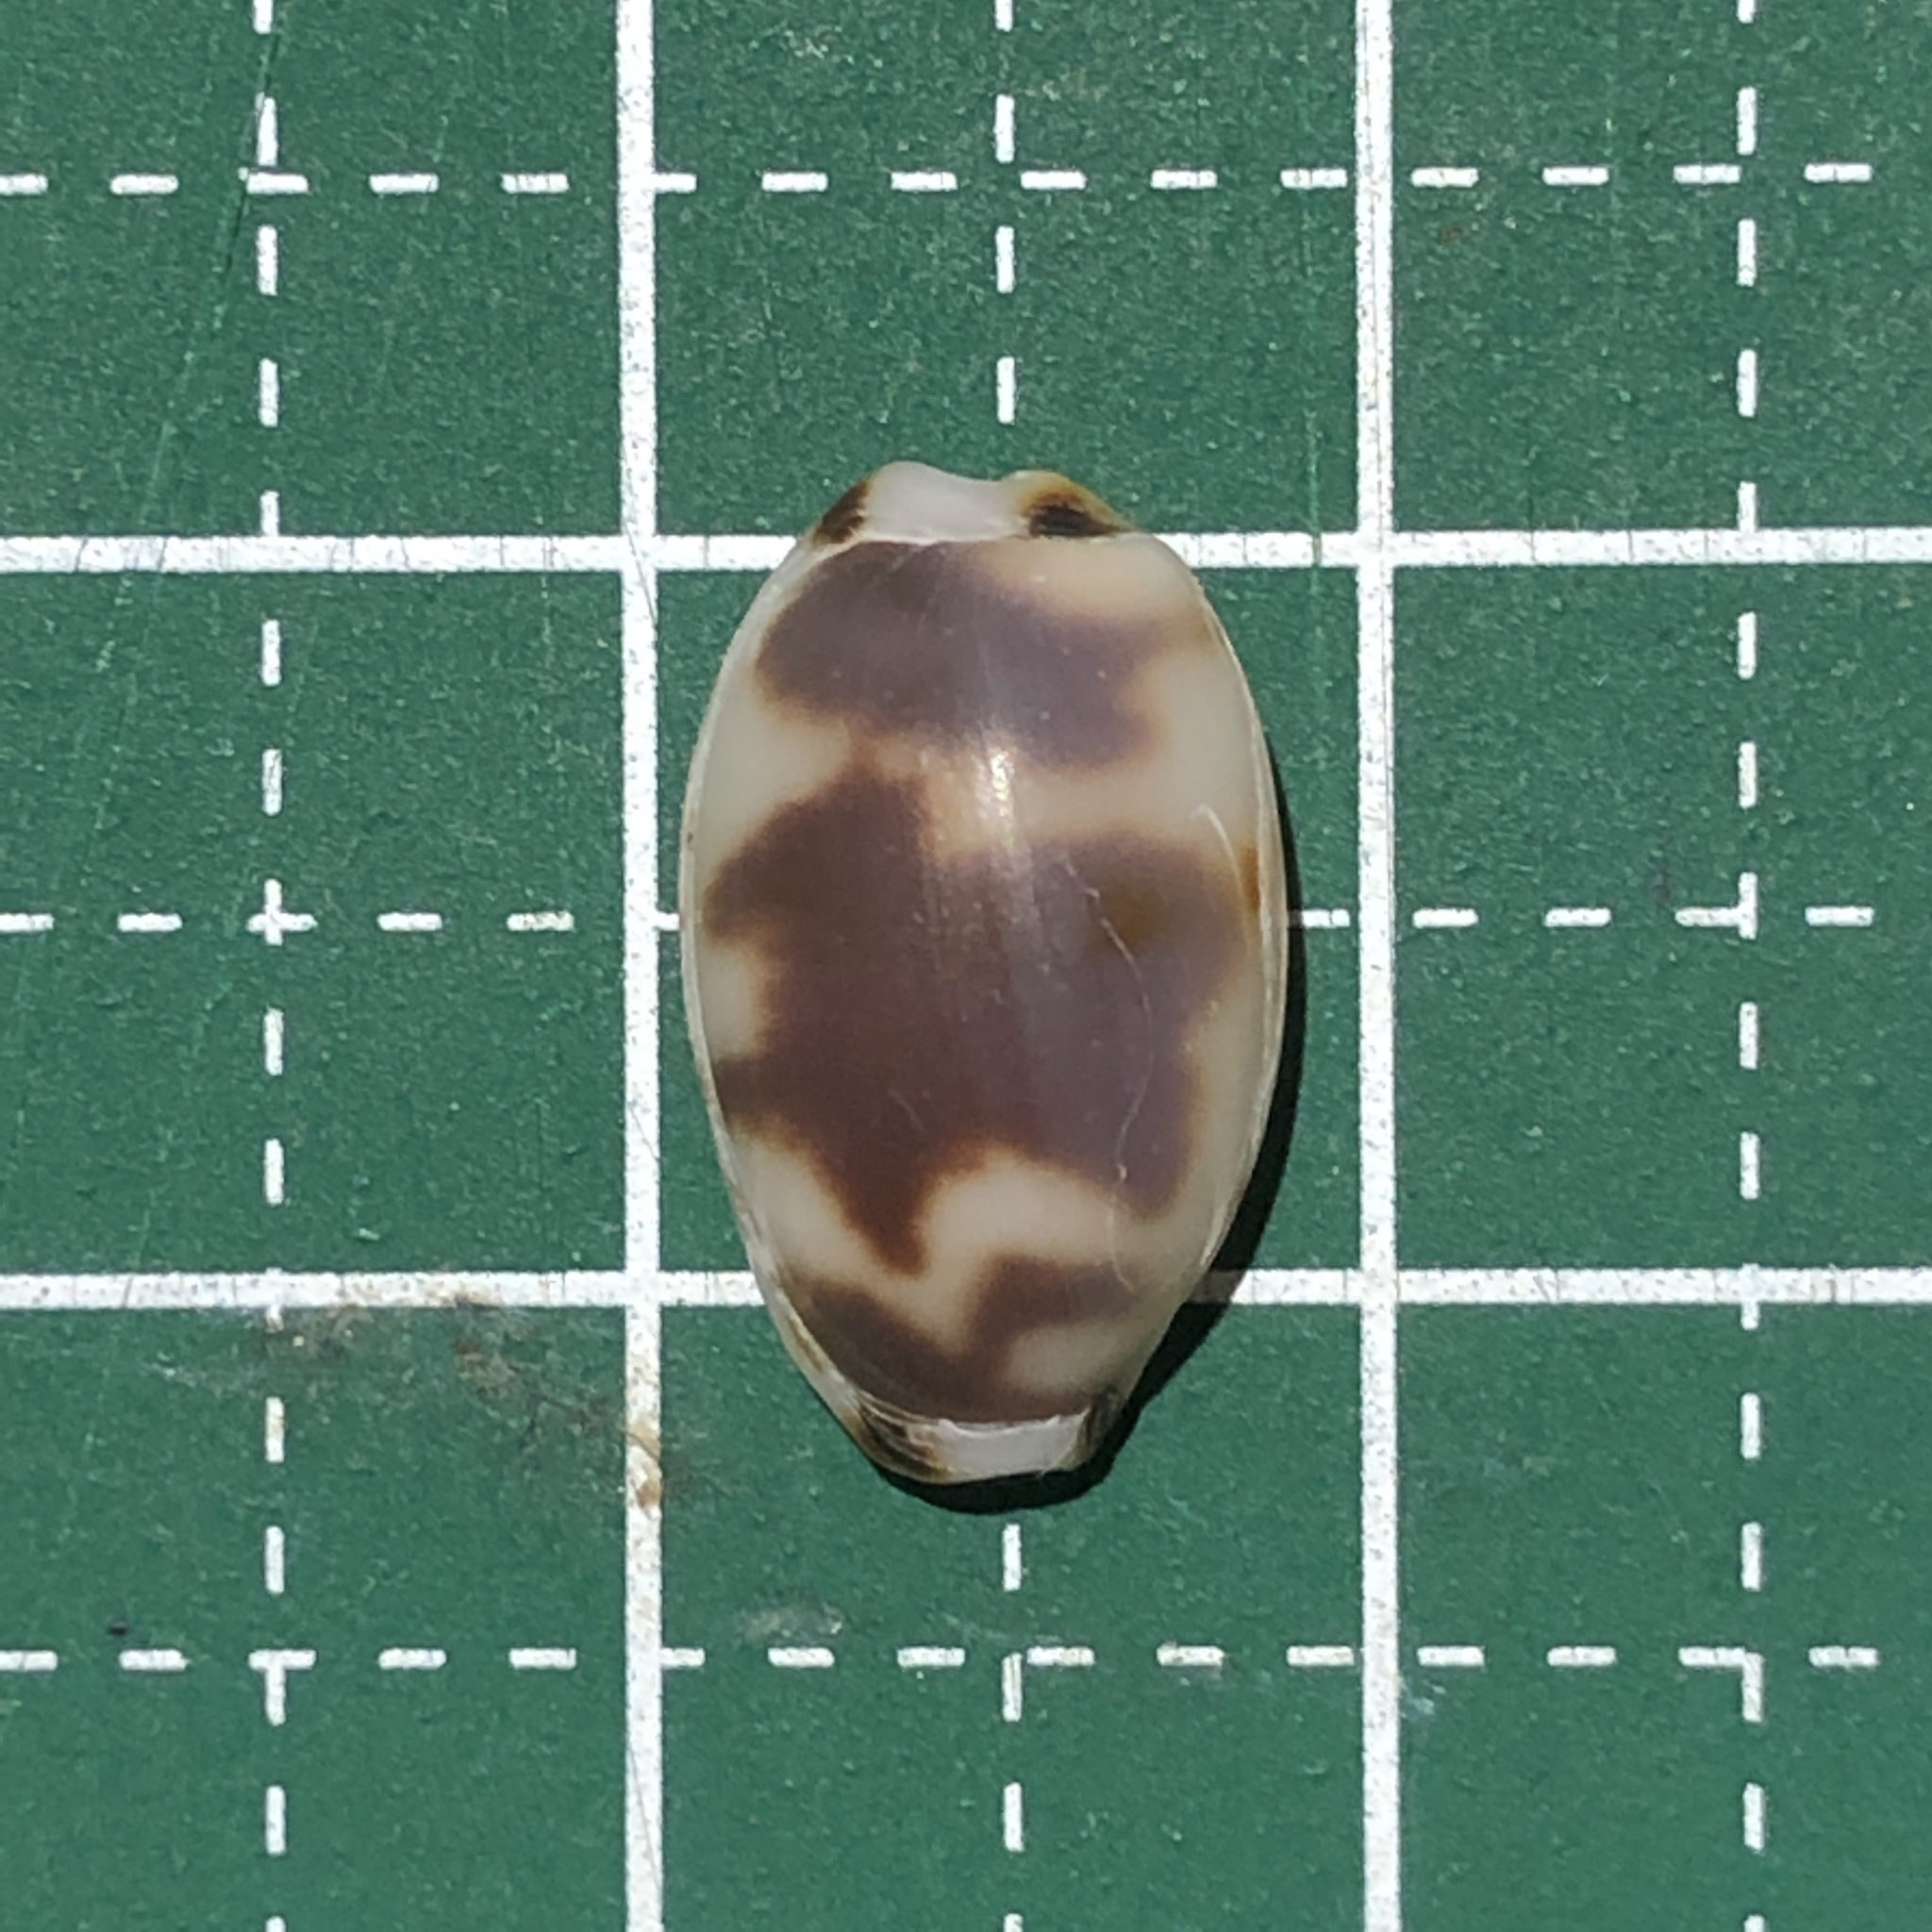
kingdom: Animalia
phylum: Mollusca
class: Gastropoda
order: Littorinimorpha
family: Cypraeidae
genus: Bistolida
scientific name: Bistolida kieneri
